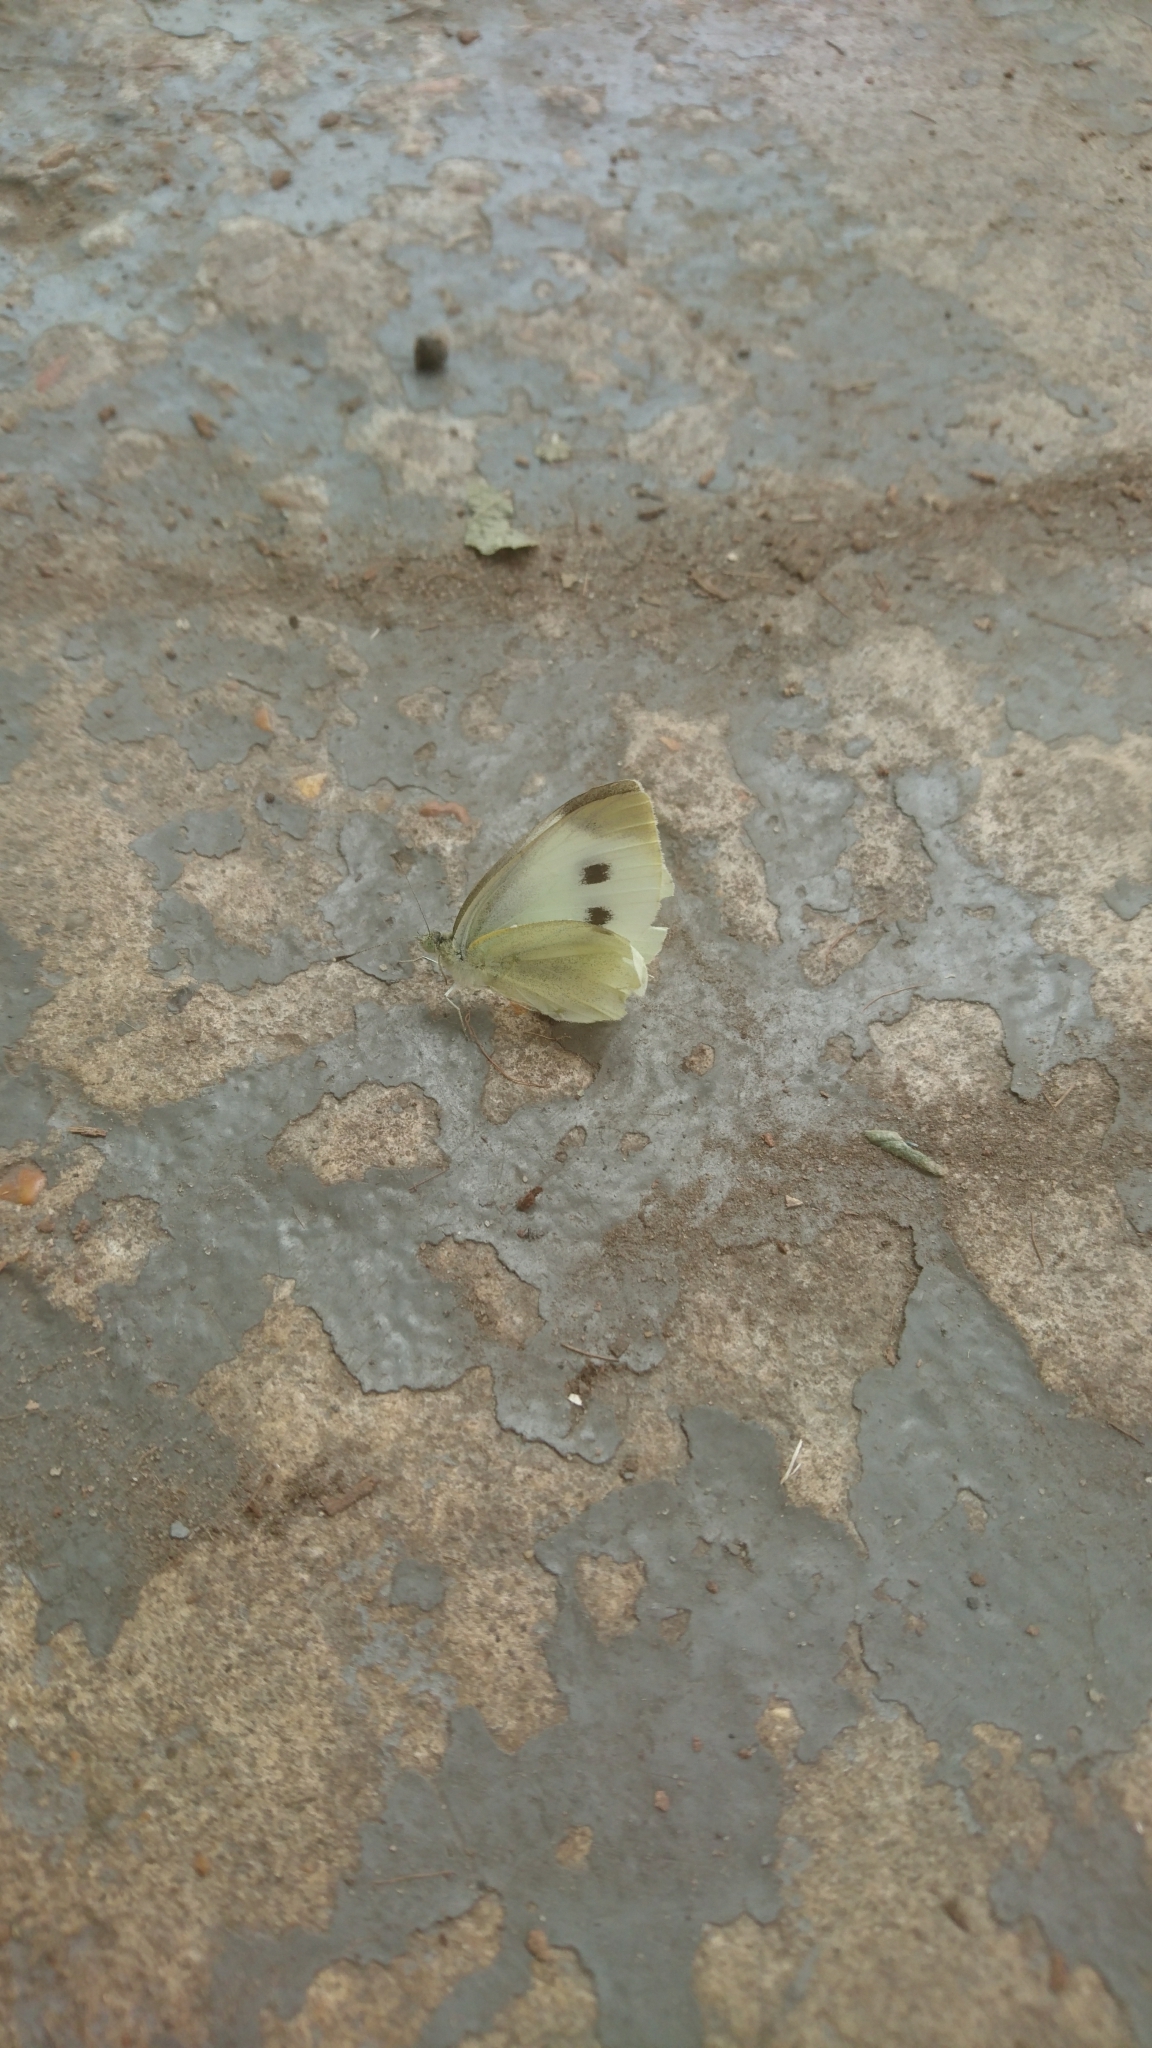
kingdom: Animalia
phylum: Arthropoda
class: Insecta
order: Lepidoptera
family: Pieridae
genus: Pieris
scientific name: Pieris rapae
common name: Small white
